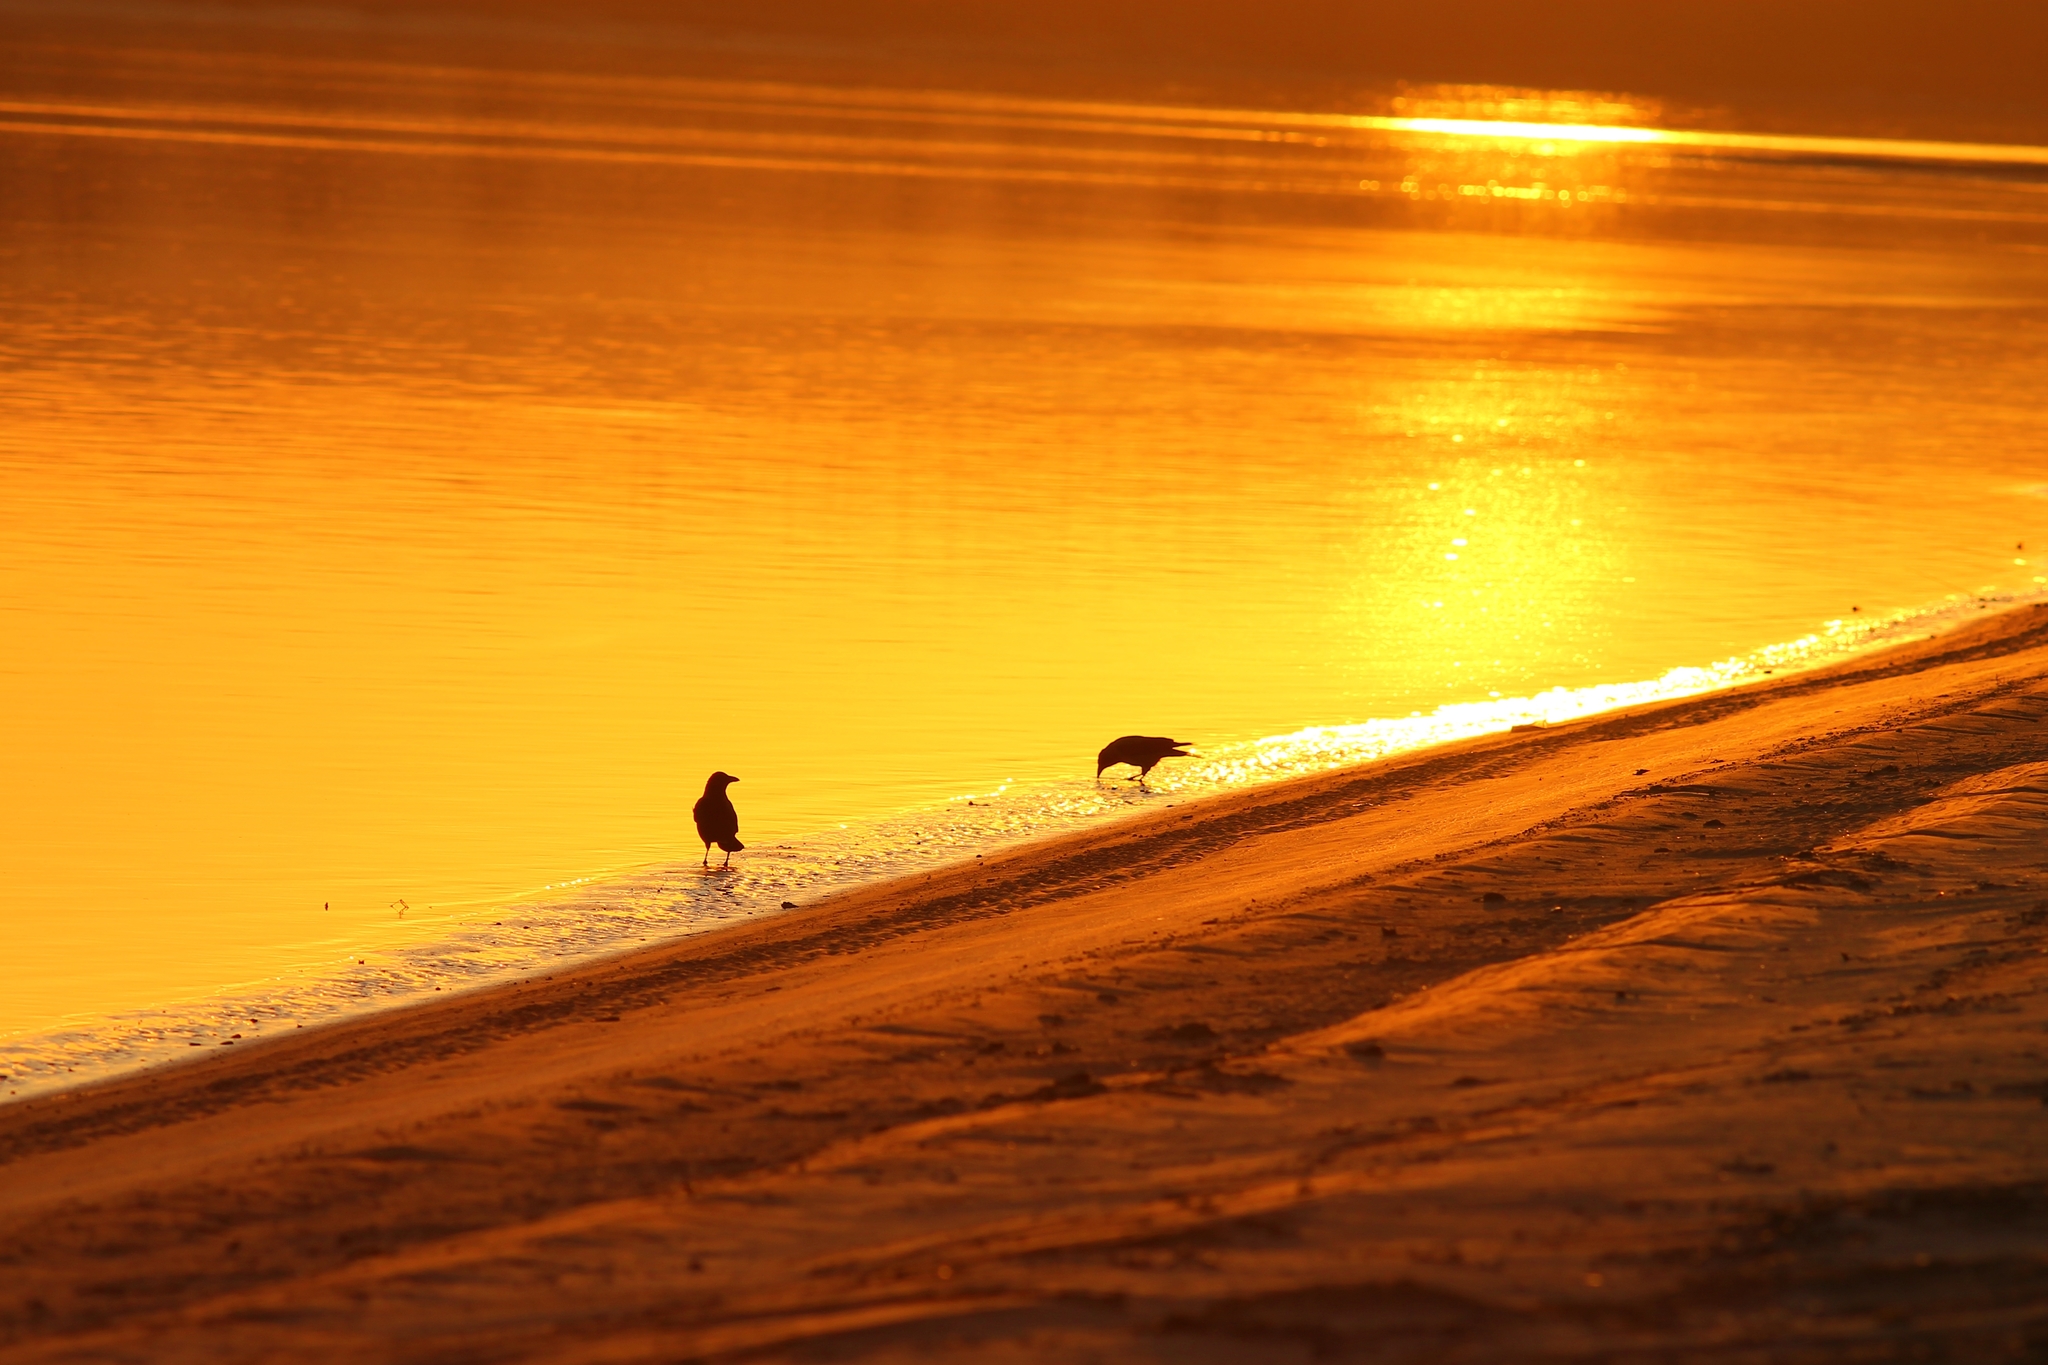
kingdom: Animalia
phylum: Chordata
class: Aves
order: Passeriformes
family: Corvidae
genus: Corvus
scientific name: Corvus cornix
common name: Hooded crow
